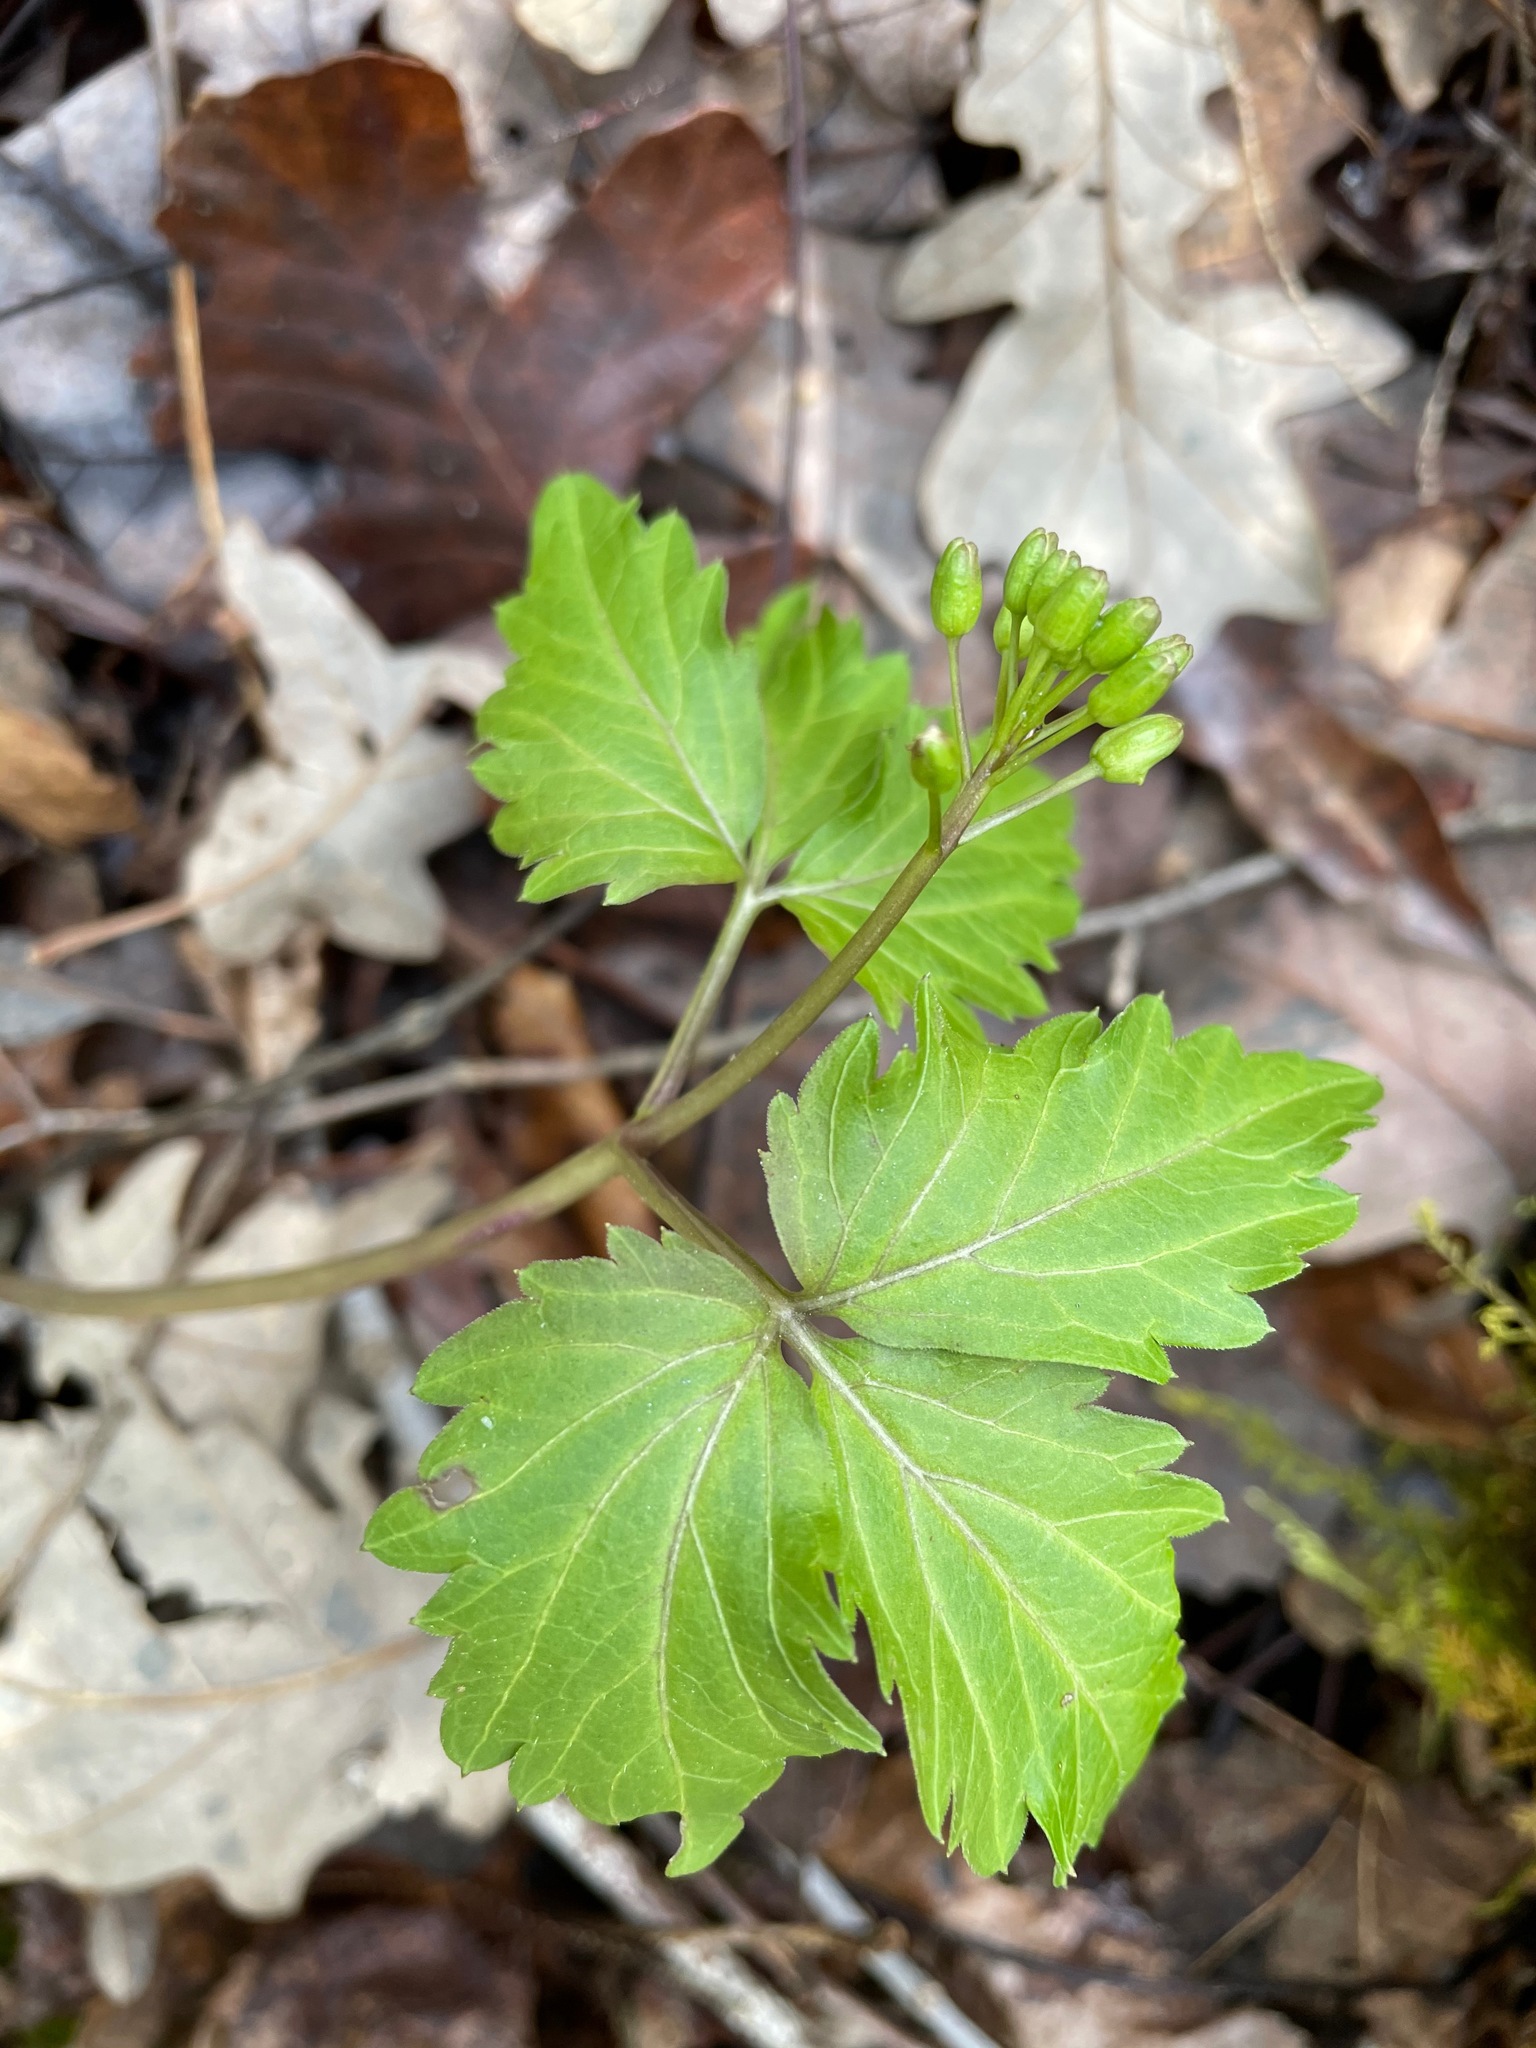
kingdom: Plantae
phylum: Tracheophyta
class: Magnoliopsida
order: Brassicales
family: Brassicaceae
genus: Cardamine
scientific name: Cardamine diphylla
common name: Broad-leaved toothwort
